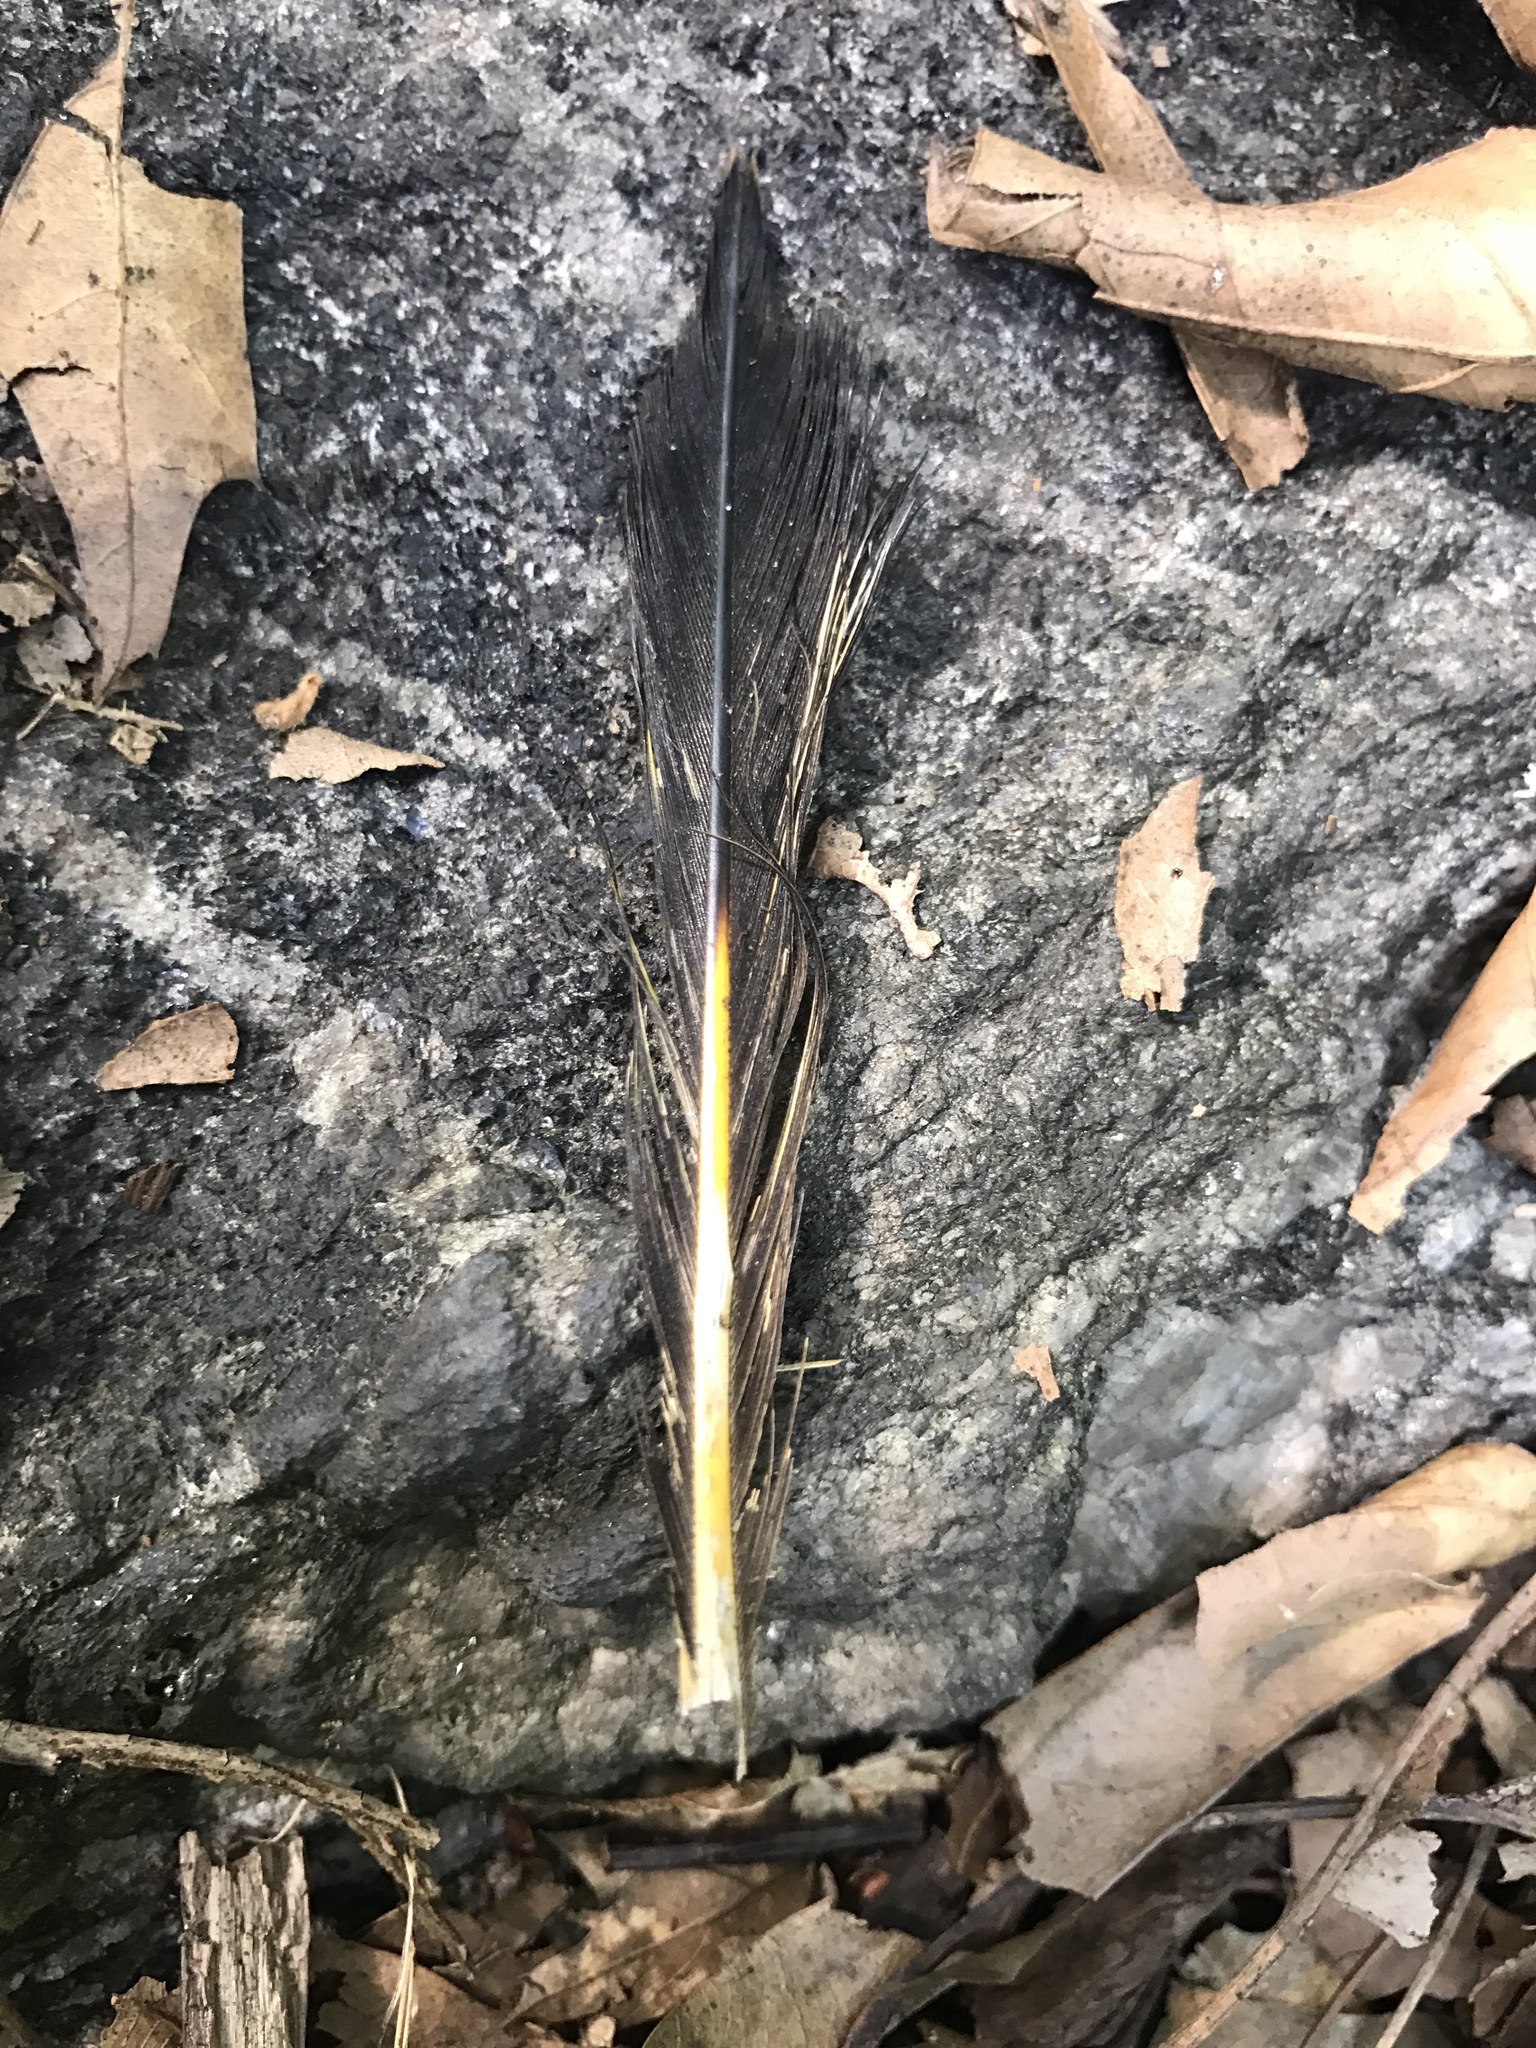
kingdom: Animalia
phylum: Chordata
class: Aves
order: Piciformes
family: Picidae
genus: Colaptes
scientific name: Colaptes auratus
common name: Northern flicker
